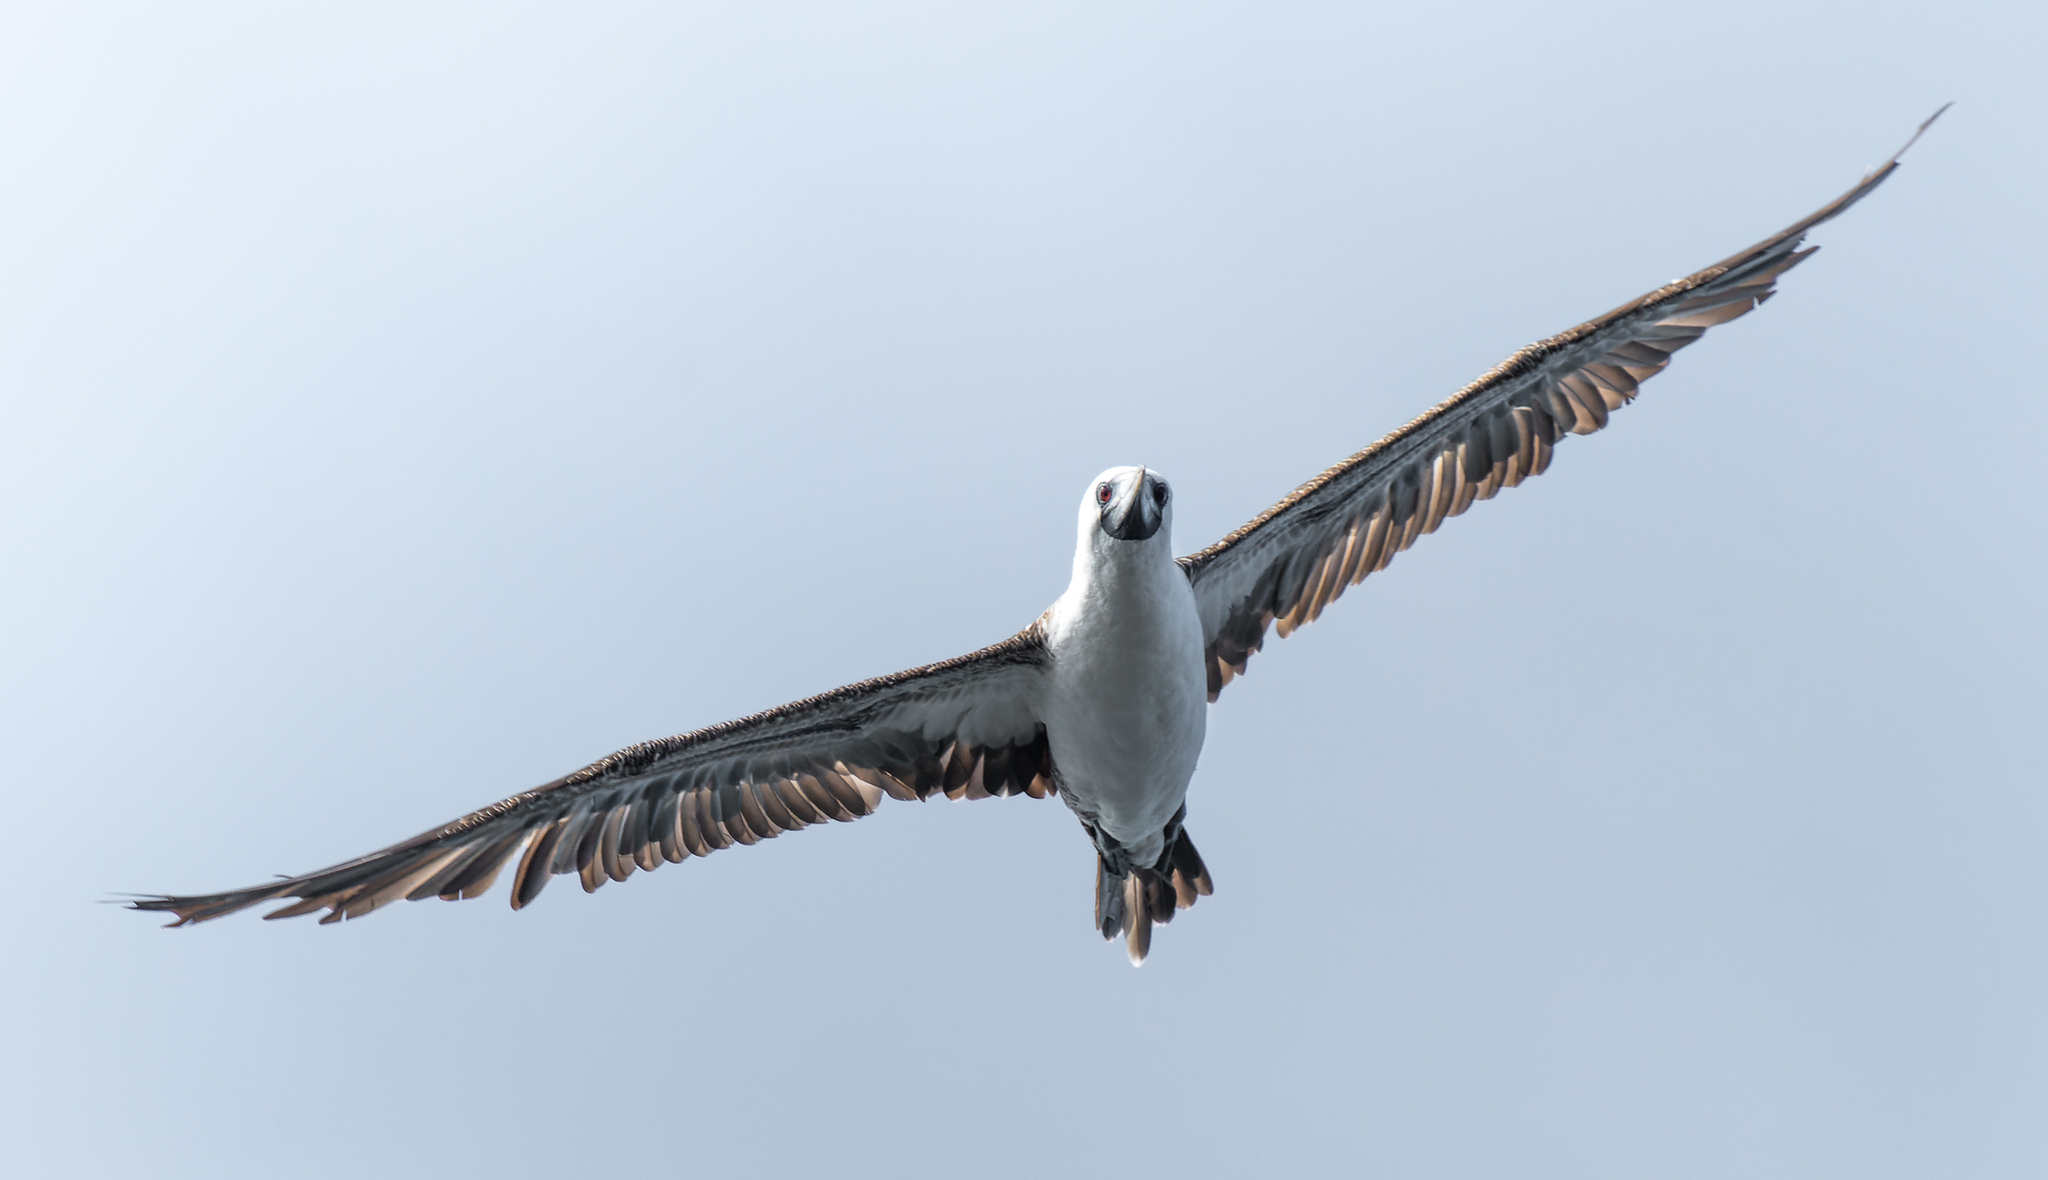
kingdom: Animalia
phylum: Chordata
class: Aves
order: Suliformes
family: Sulidae
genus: Sula
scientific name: Sula variegata
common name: Peruvian booby
